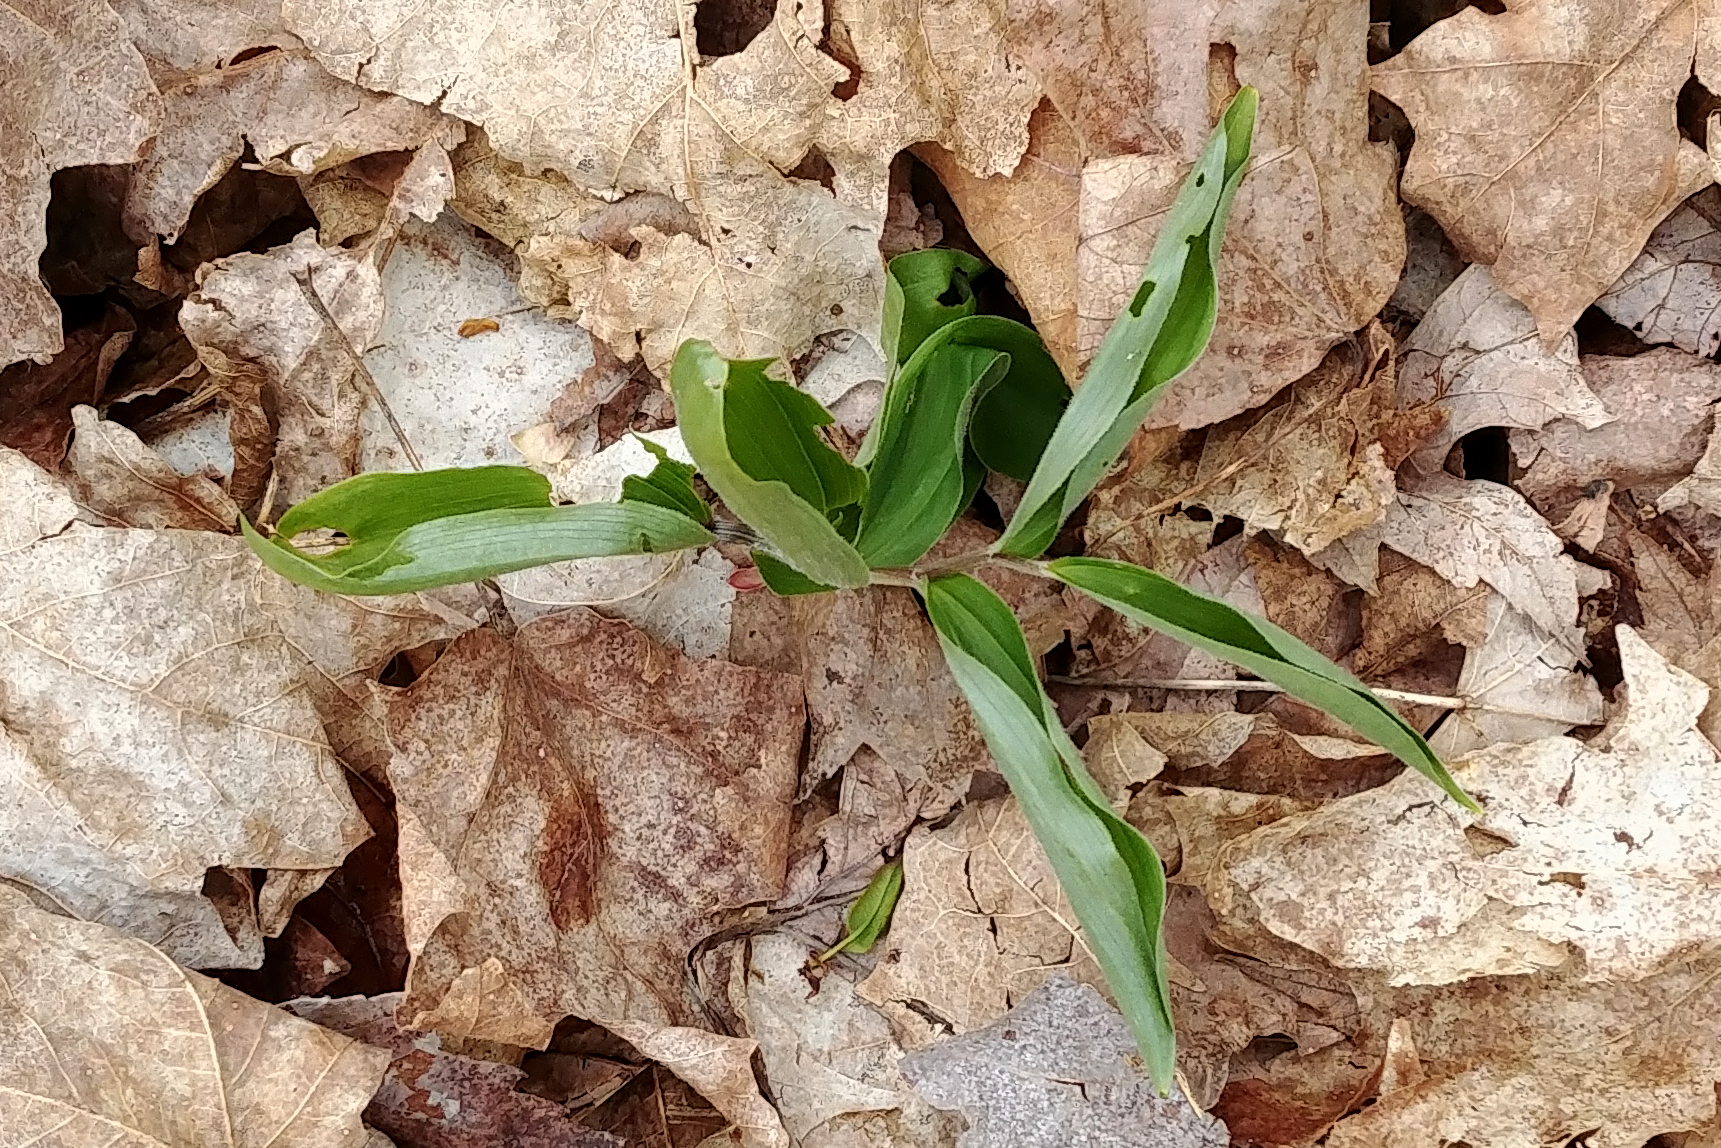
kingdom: Plantae
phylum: Tracheophyta
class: Liliopsida
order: Asparagales
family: Asparagaceae
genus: Maianthemum
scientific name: Maianthemum racemosum
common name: False spikenard
